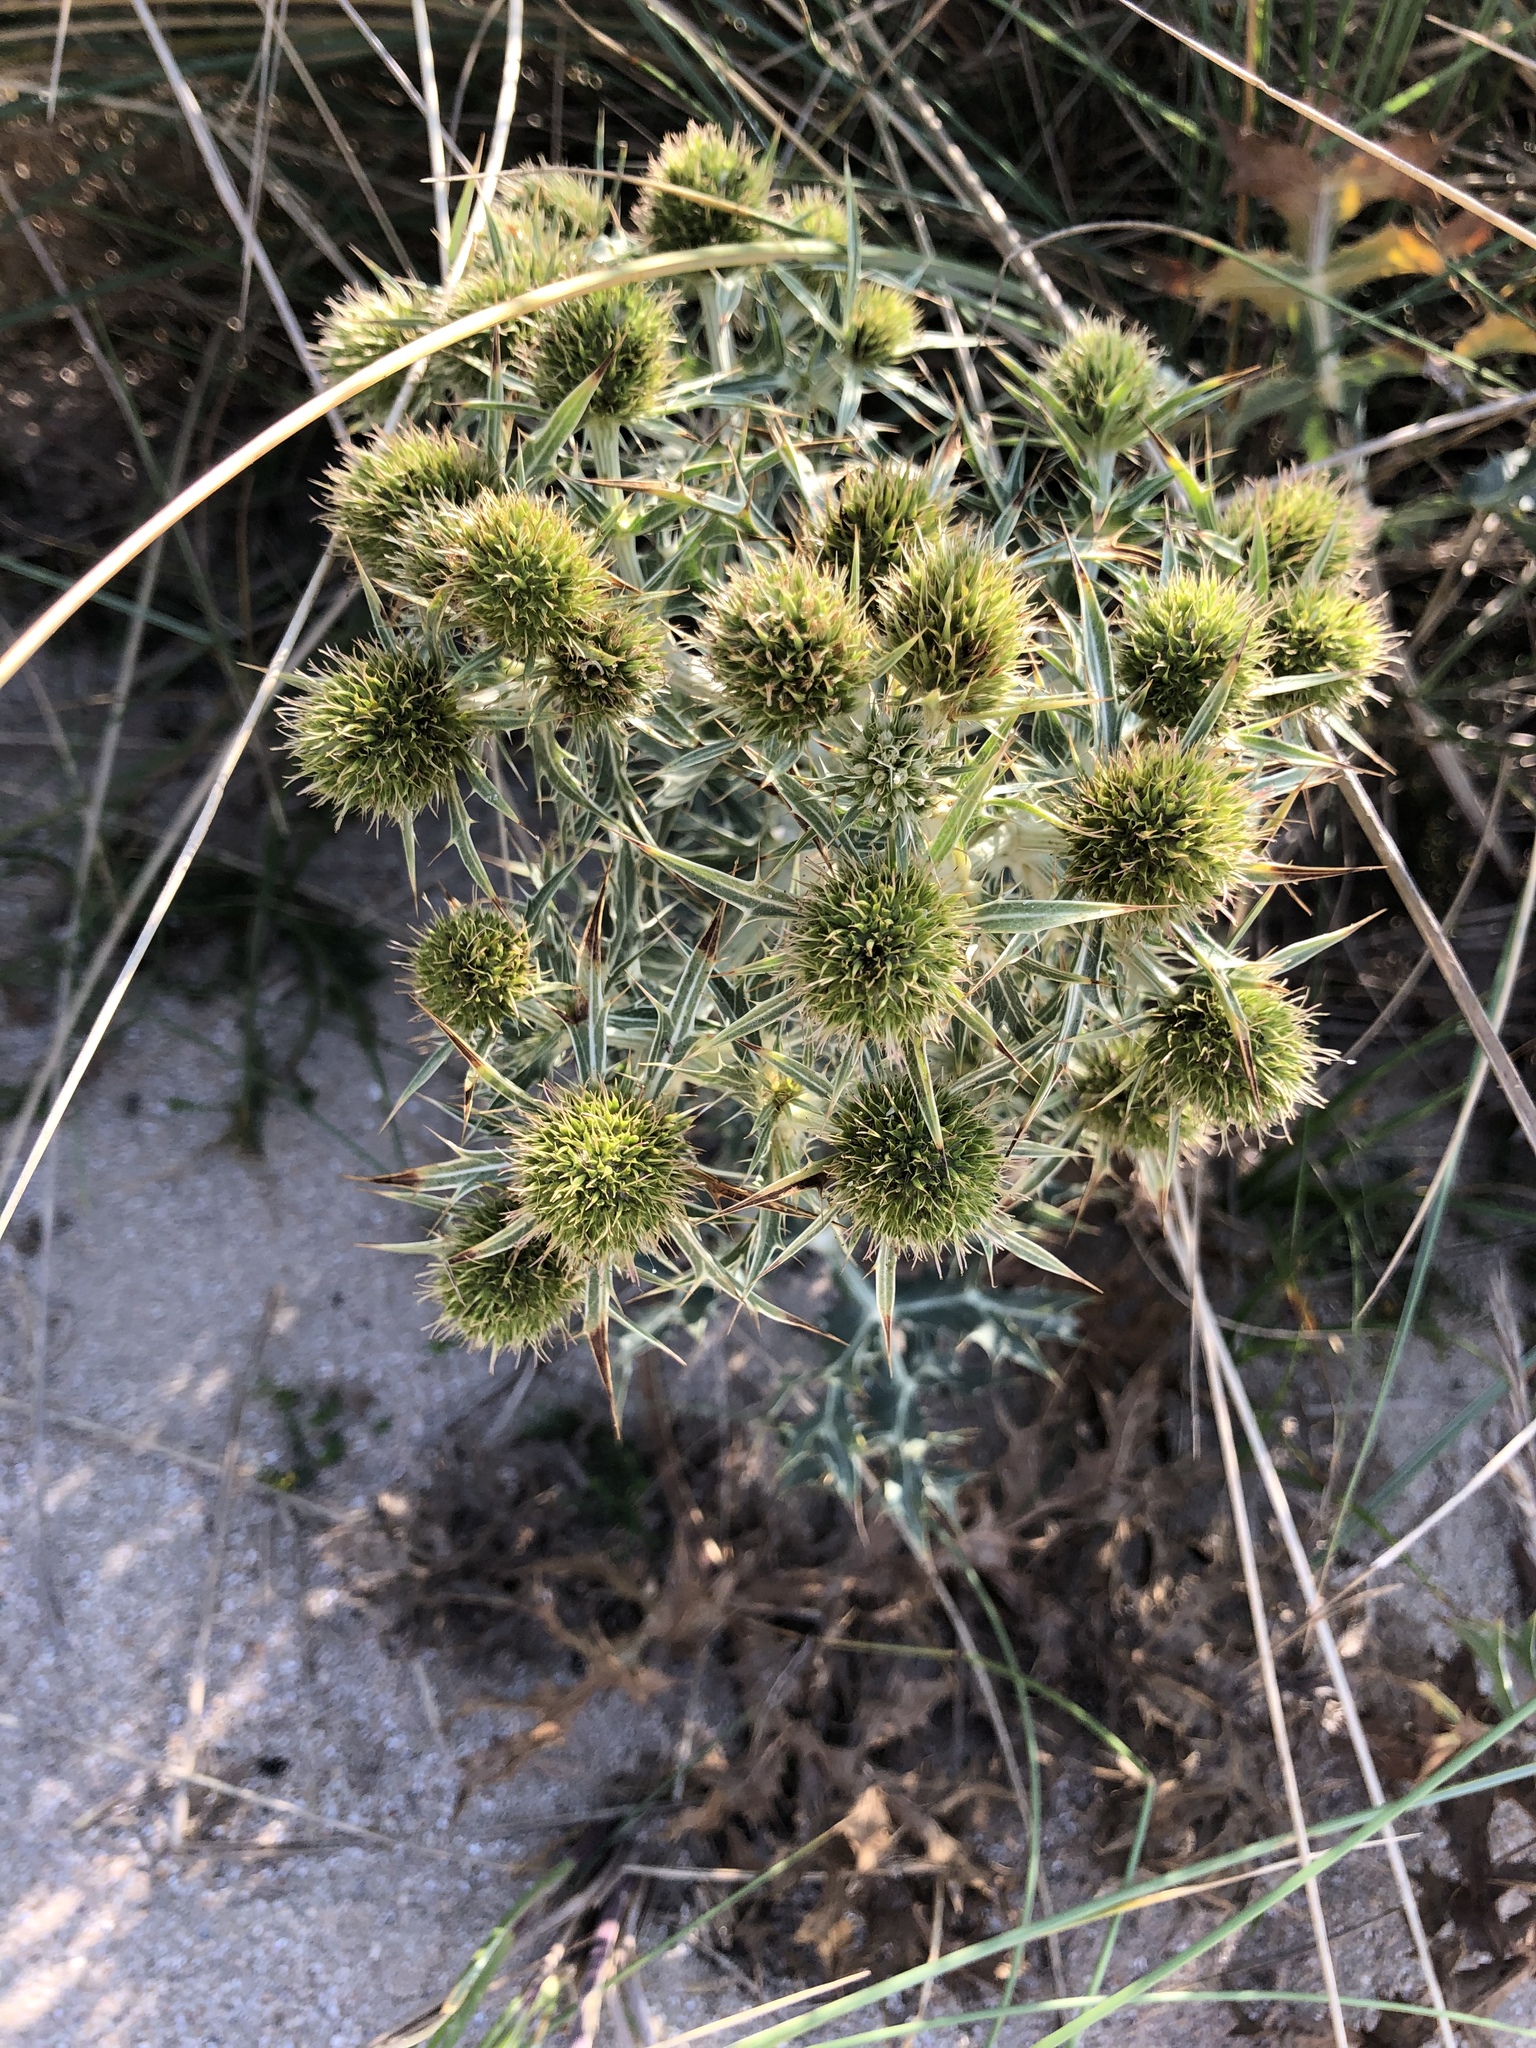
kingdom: Plantae
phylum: Tracheophyta
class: Magnoliopsida
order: Apiales
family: Apiaceae
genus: Eryngium
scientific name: Eryngium campestre
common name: Field eryngo
